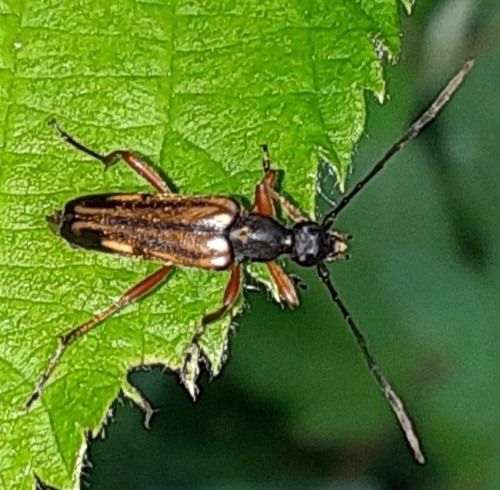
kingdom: Animalia
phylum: Arthropoda
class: Insecta
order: Coleoptera
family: Cerambycidae
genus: Analeptura
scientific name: Analeptura lineola
